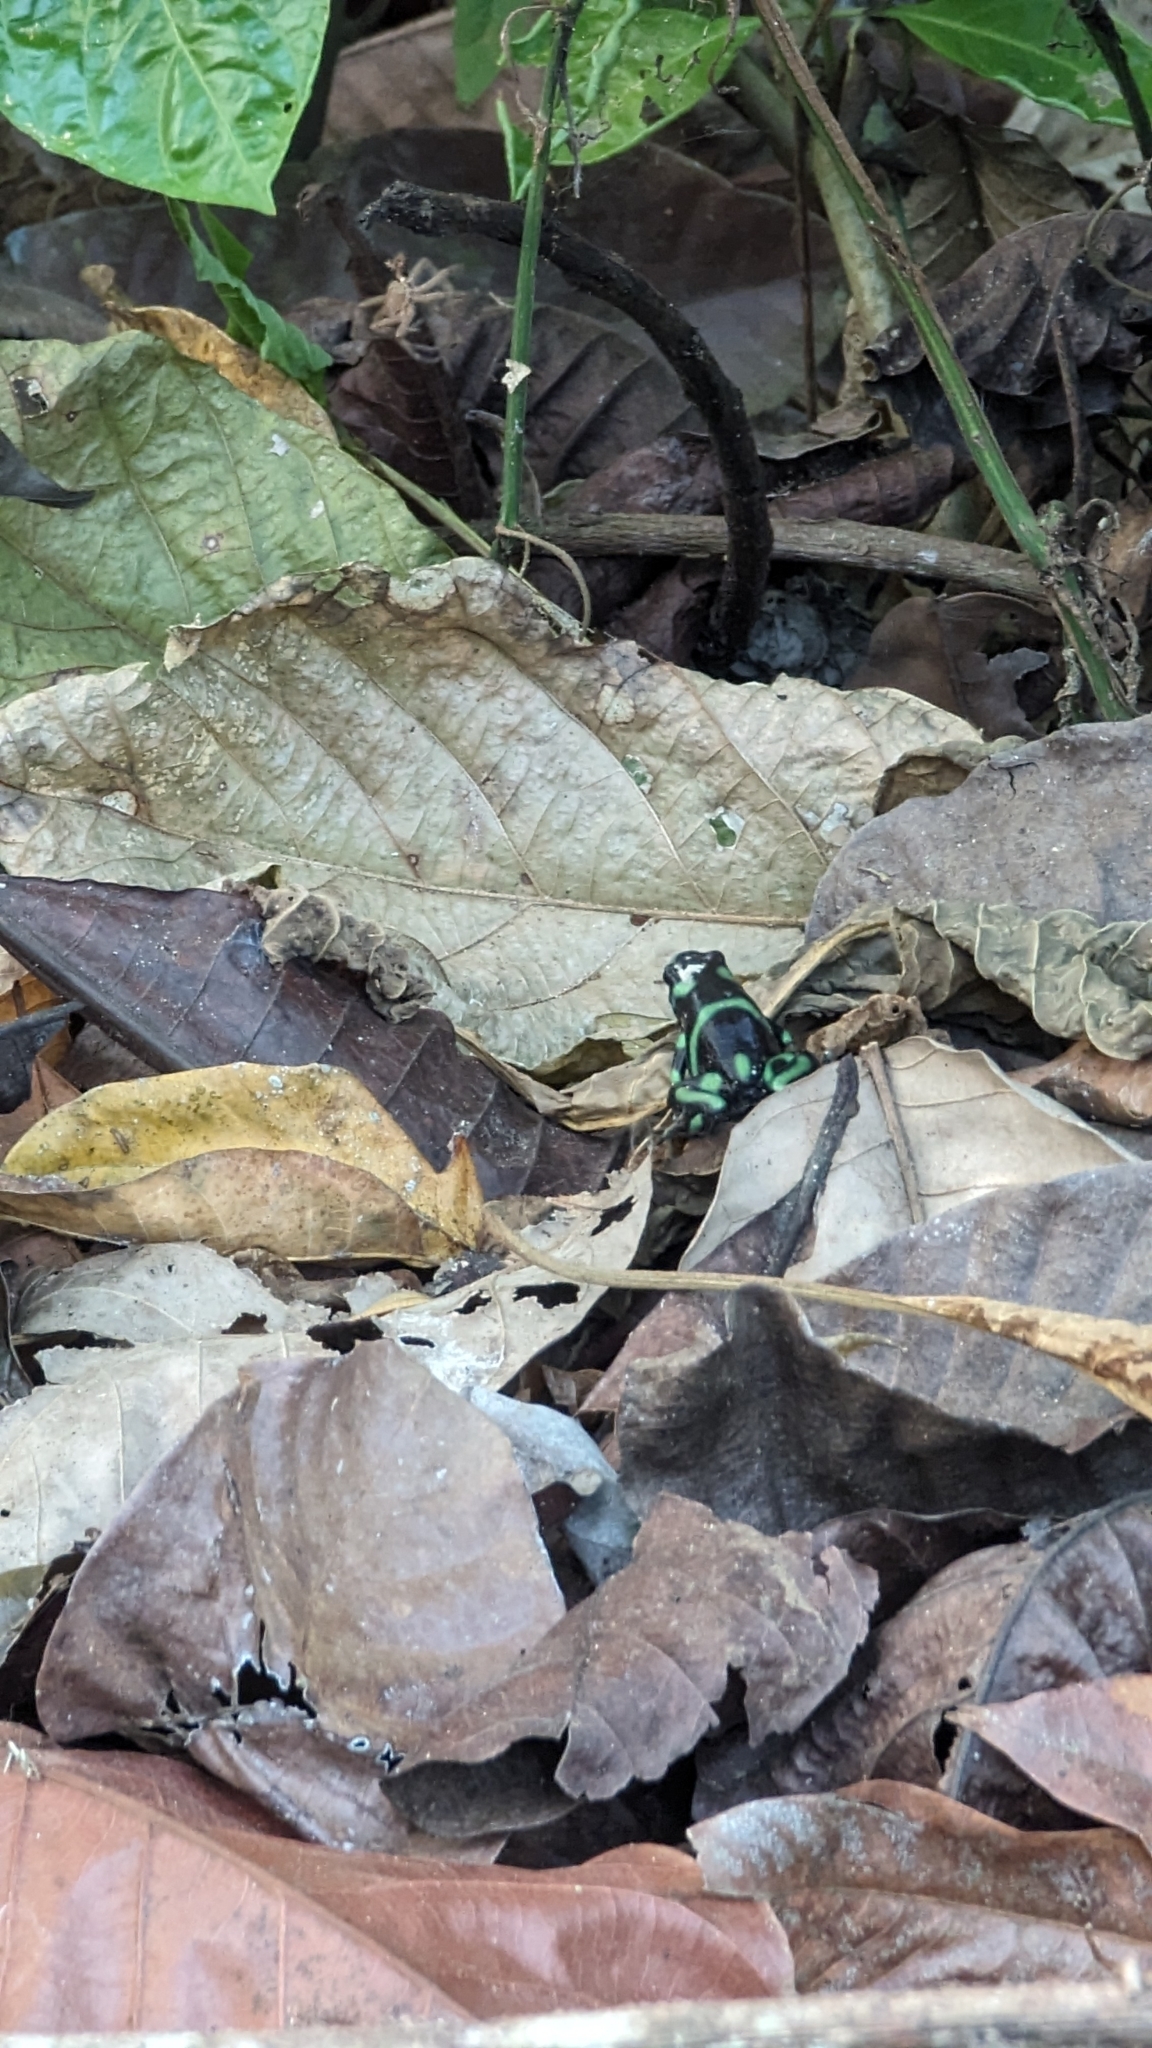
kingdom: Animalia
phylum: Chordata
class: Amphibia
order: Anura
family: Dendrobatidae
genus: Dendrobates
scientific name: Dendrobates auratus
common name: Green and black poison dart frog
